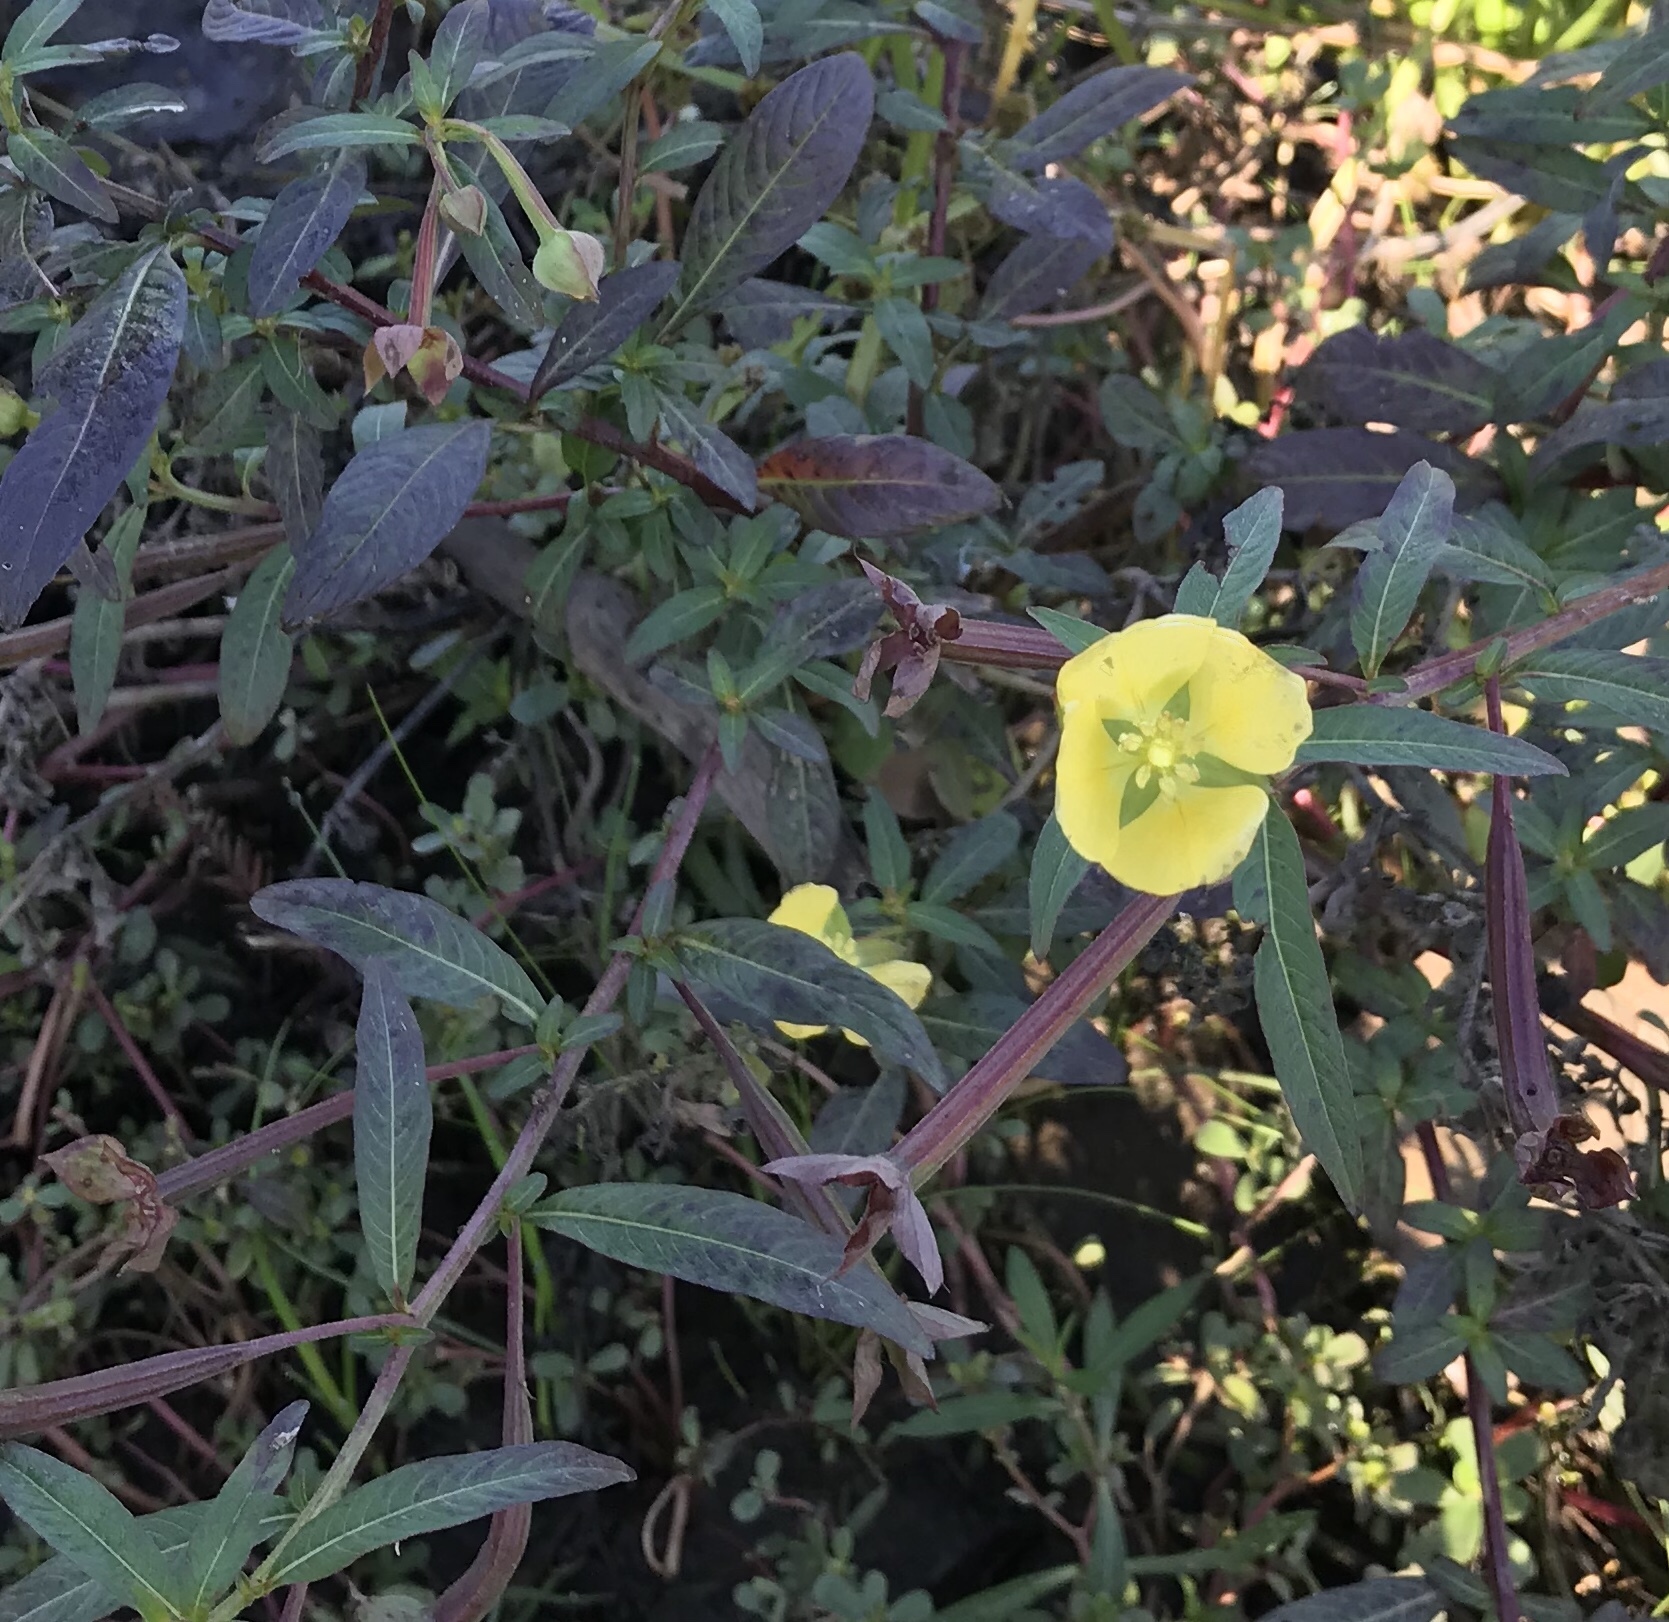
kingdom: Plantae
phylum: Tracheophyta
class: Magnoliopsida
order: Myrtales
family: Onagraceae
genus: Ludwigia
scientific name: Ludwigia octovalvis
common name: Water-primrose
